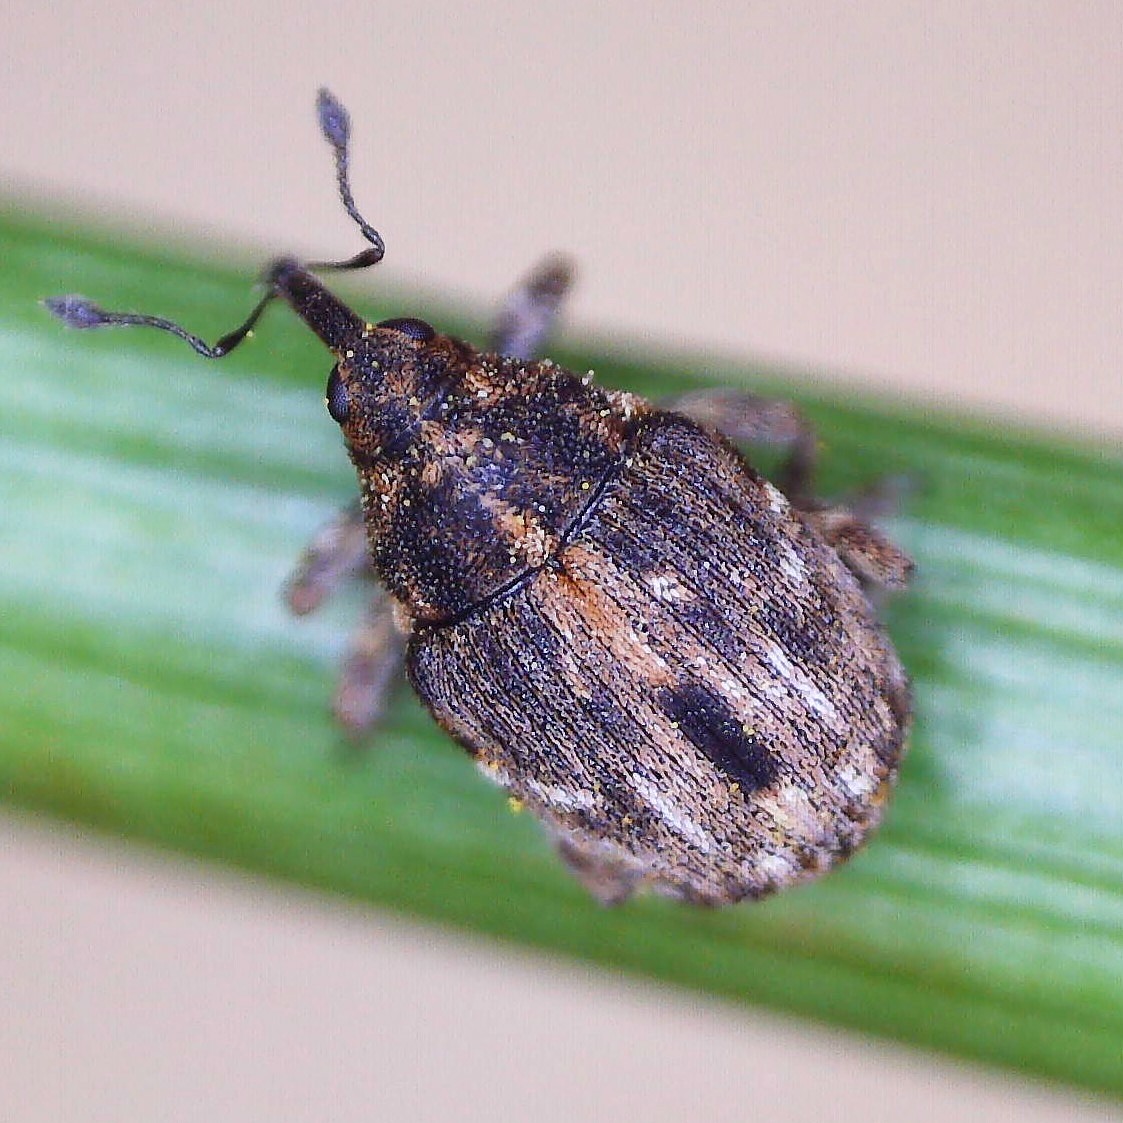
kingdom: Animalia
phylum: Arthropoda
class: Insecta
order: Coleoptera
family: Curculionidae
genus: Microplontus
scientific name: Microplontus rugulosus
